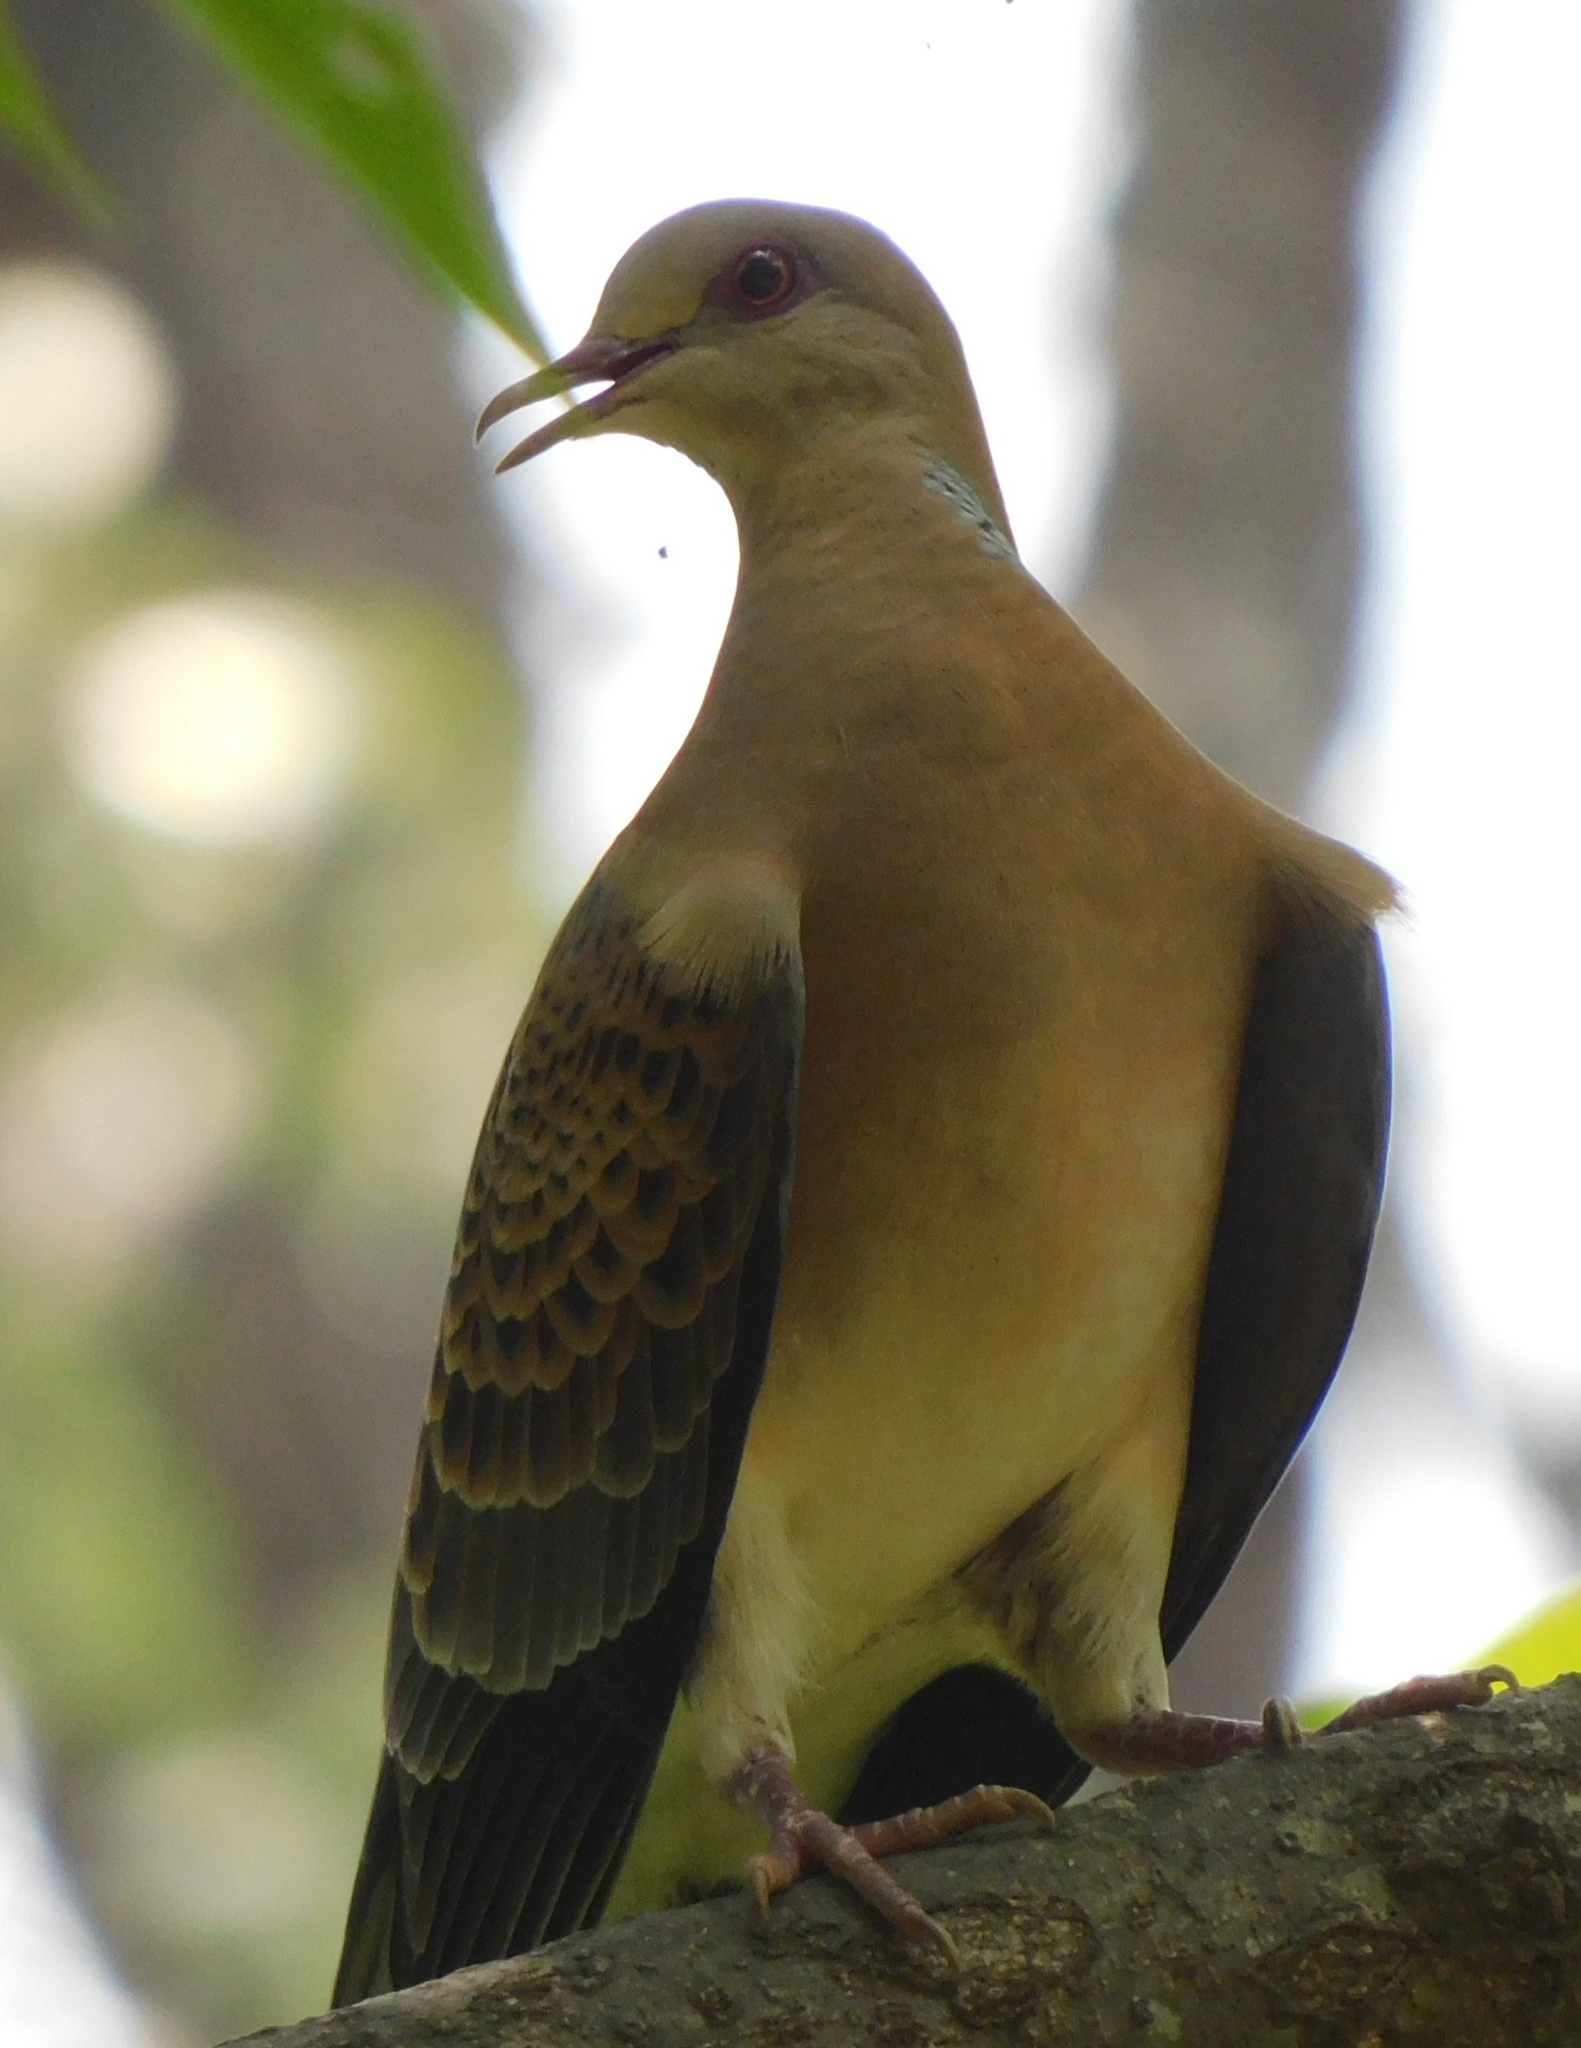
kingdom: Animalia
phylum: Chordata
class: Aves
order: Columbiformes
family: Columbidae
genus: Streptopelia
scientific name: Streptopelia orientalis
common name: Oriental turtle dove
